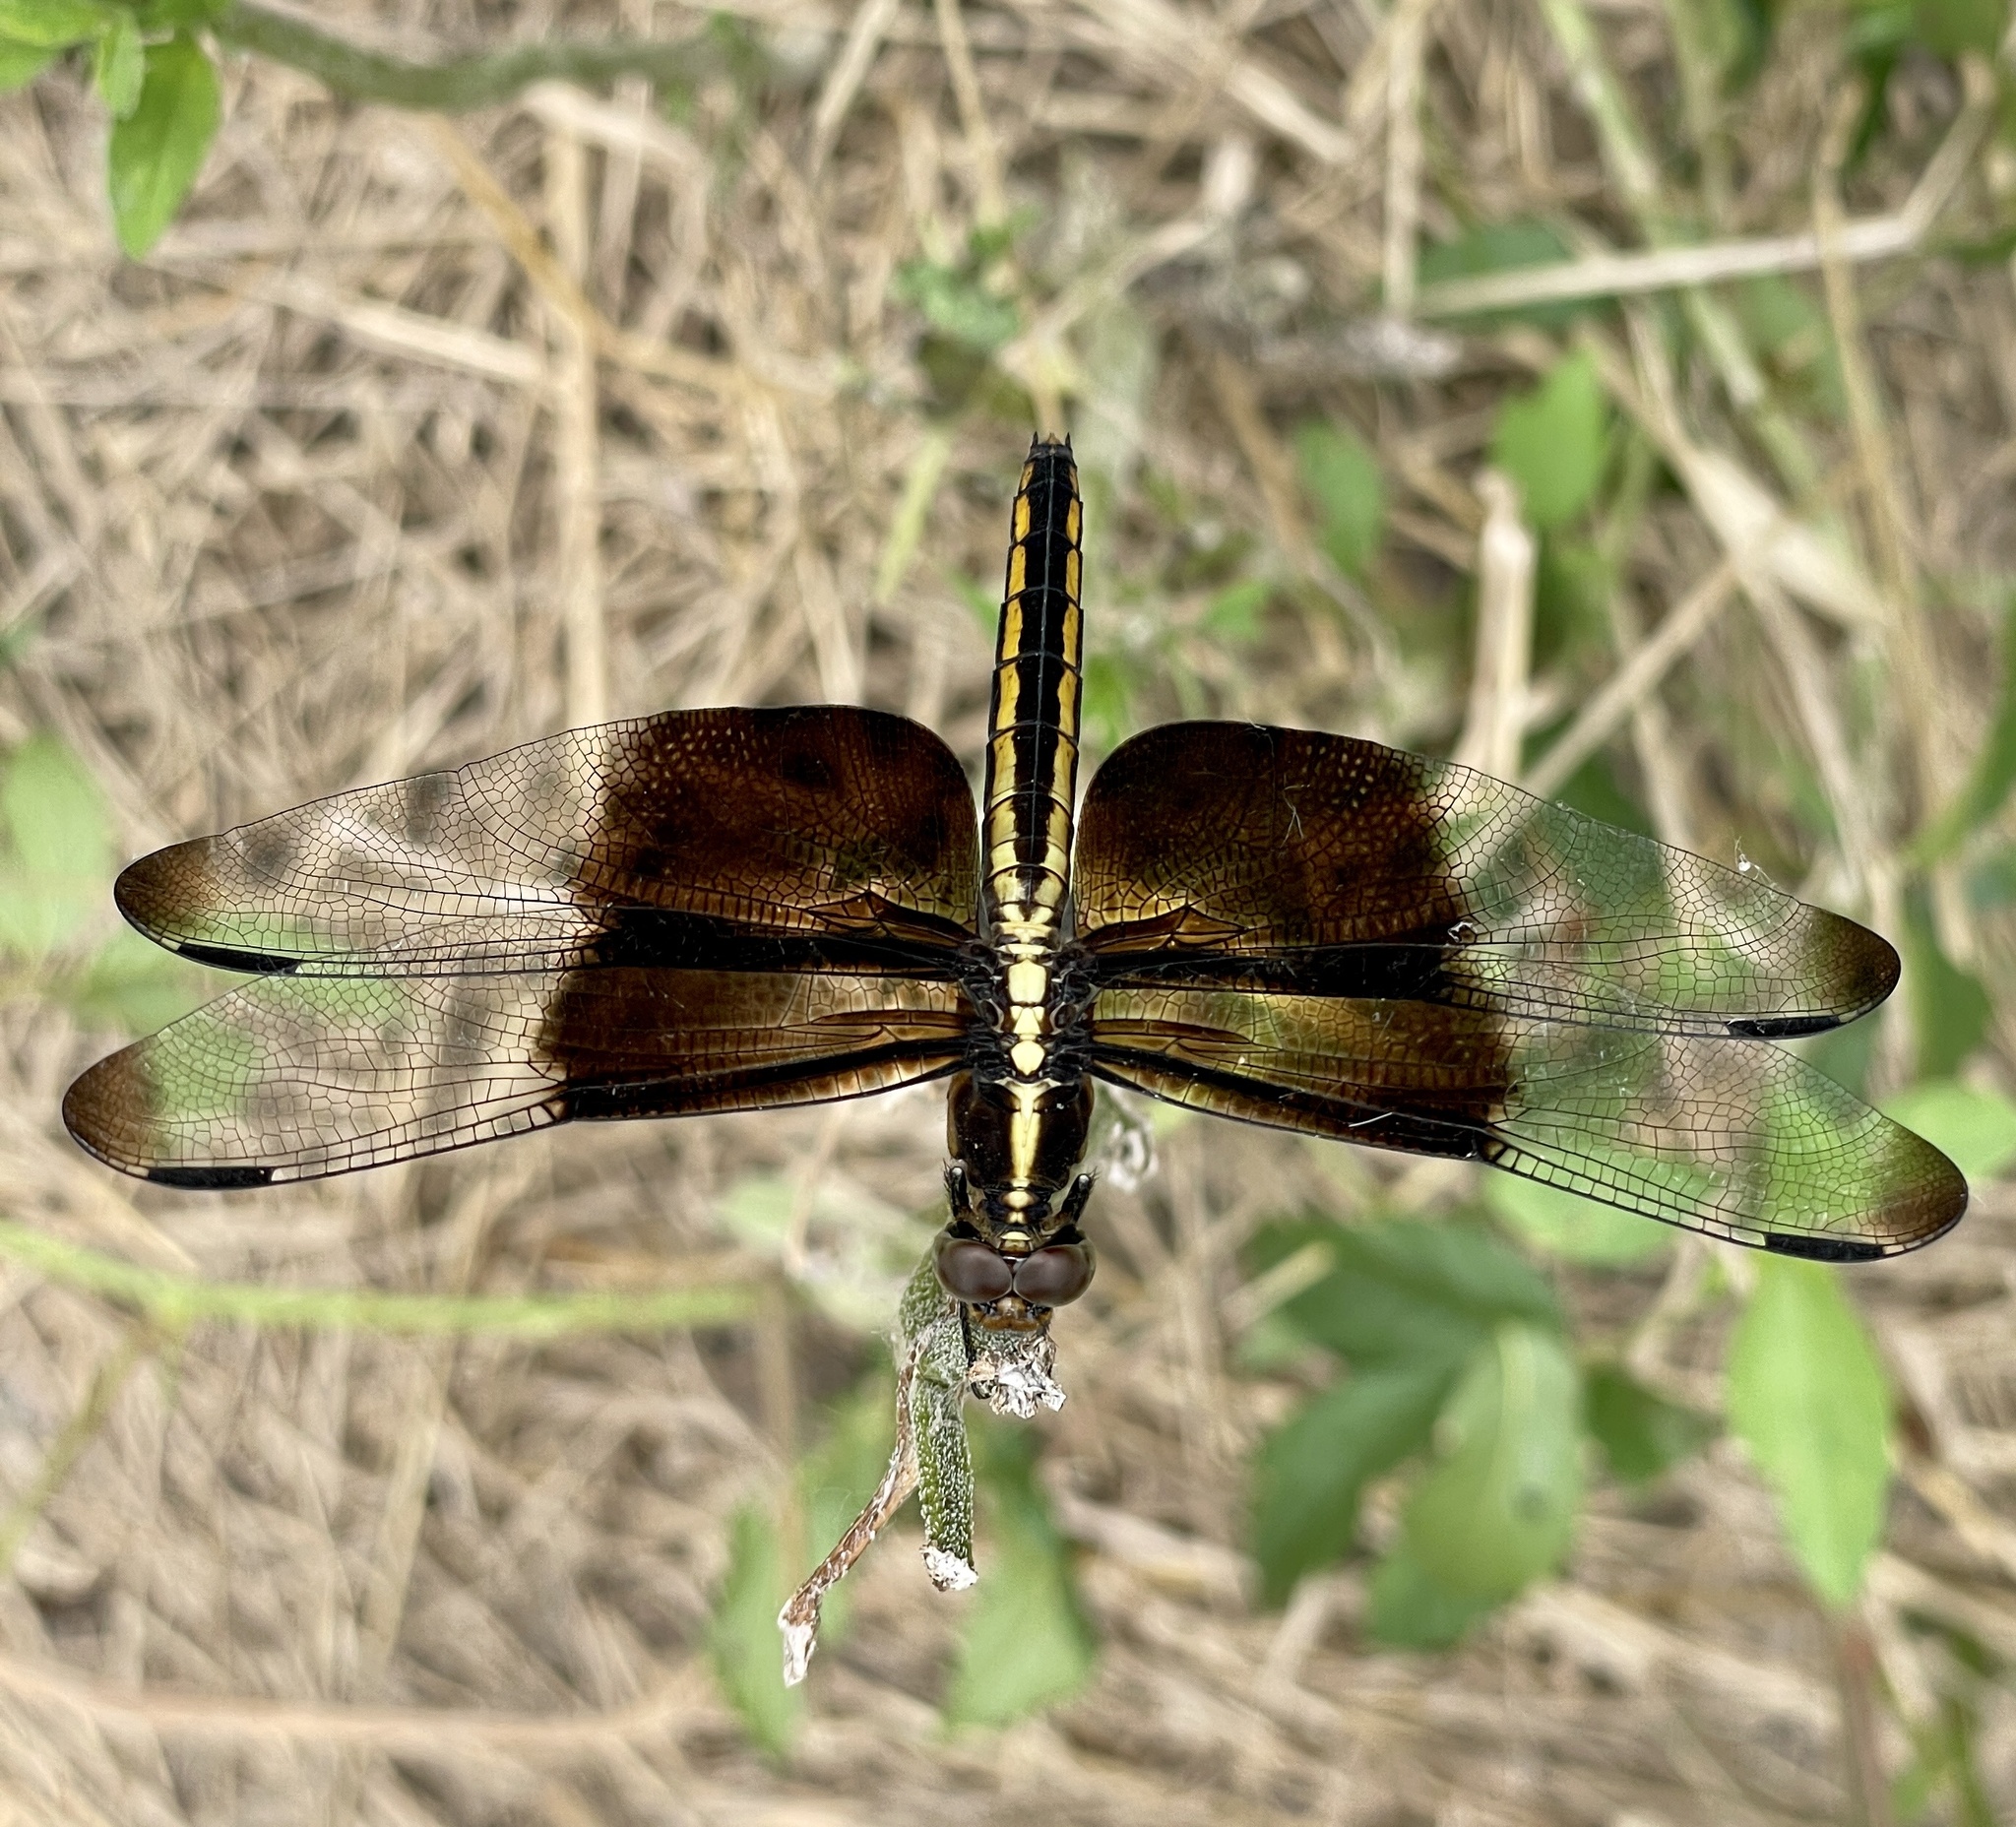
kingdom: Animalia
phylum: Arthropoda
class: Insecta
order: Odonata
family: Libellulidae
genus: Libellula
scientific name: Libellula luctuosa
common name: Widow skimmer
